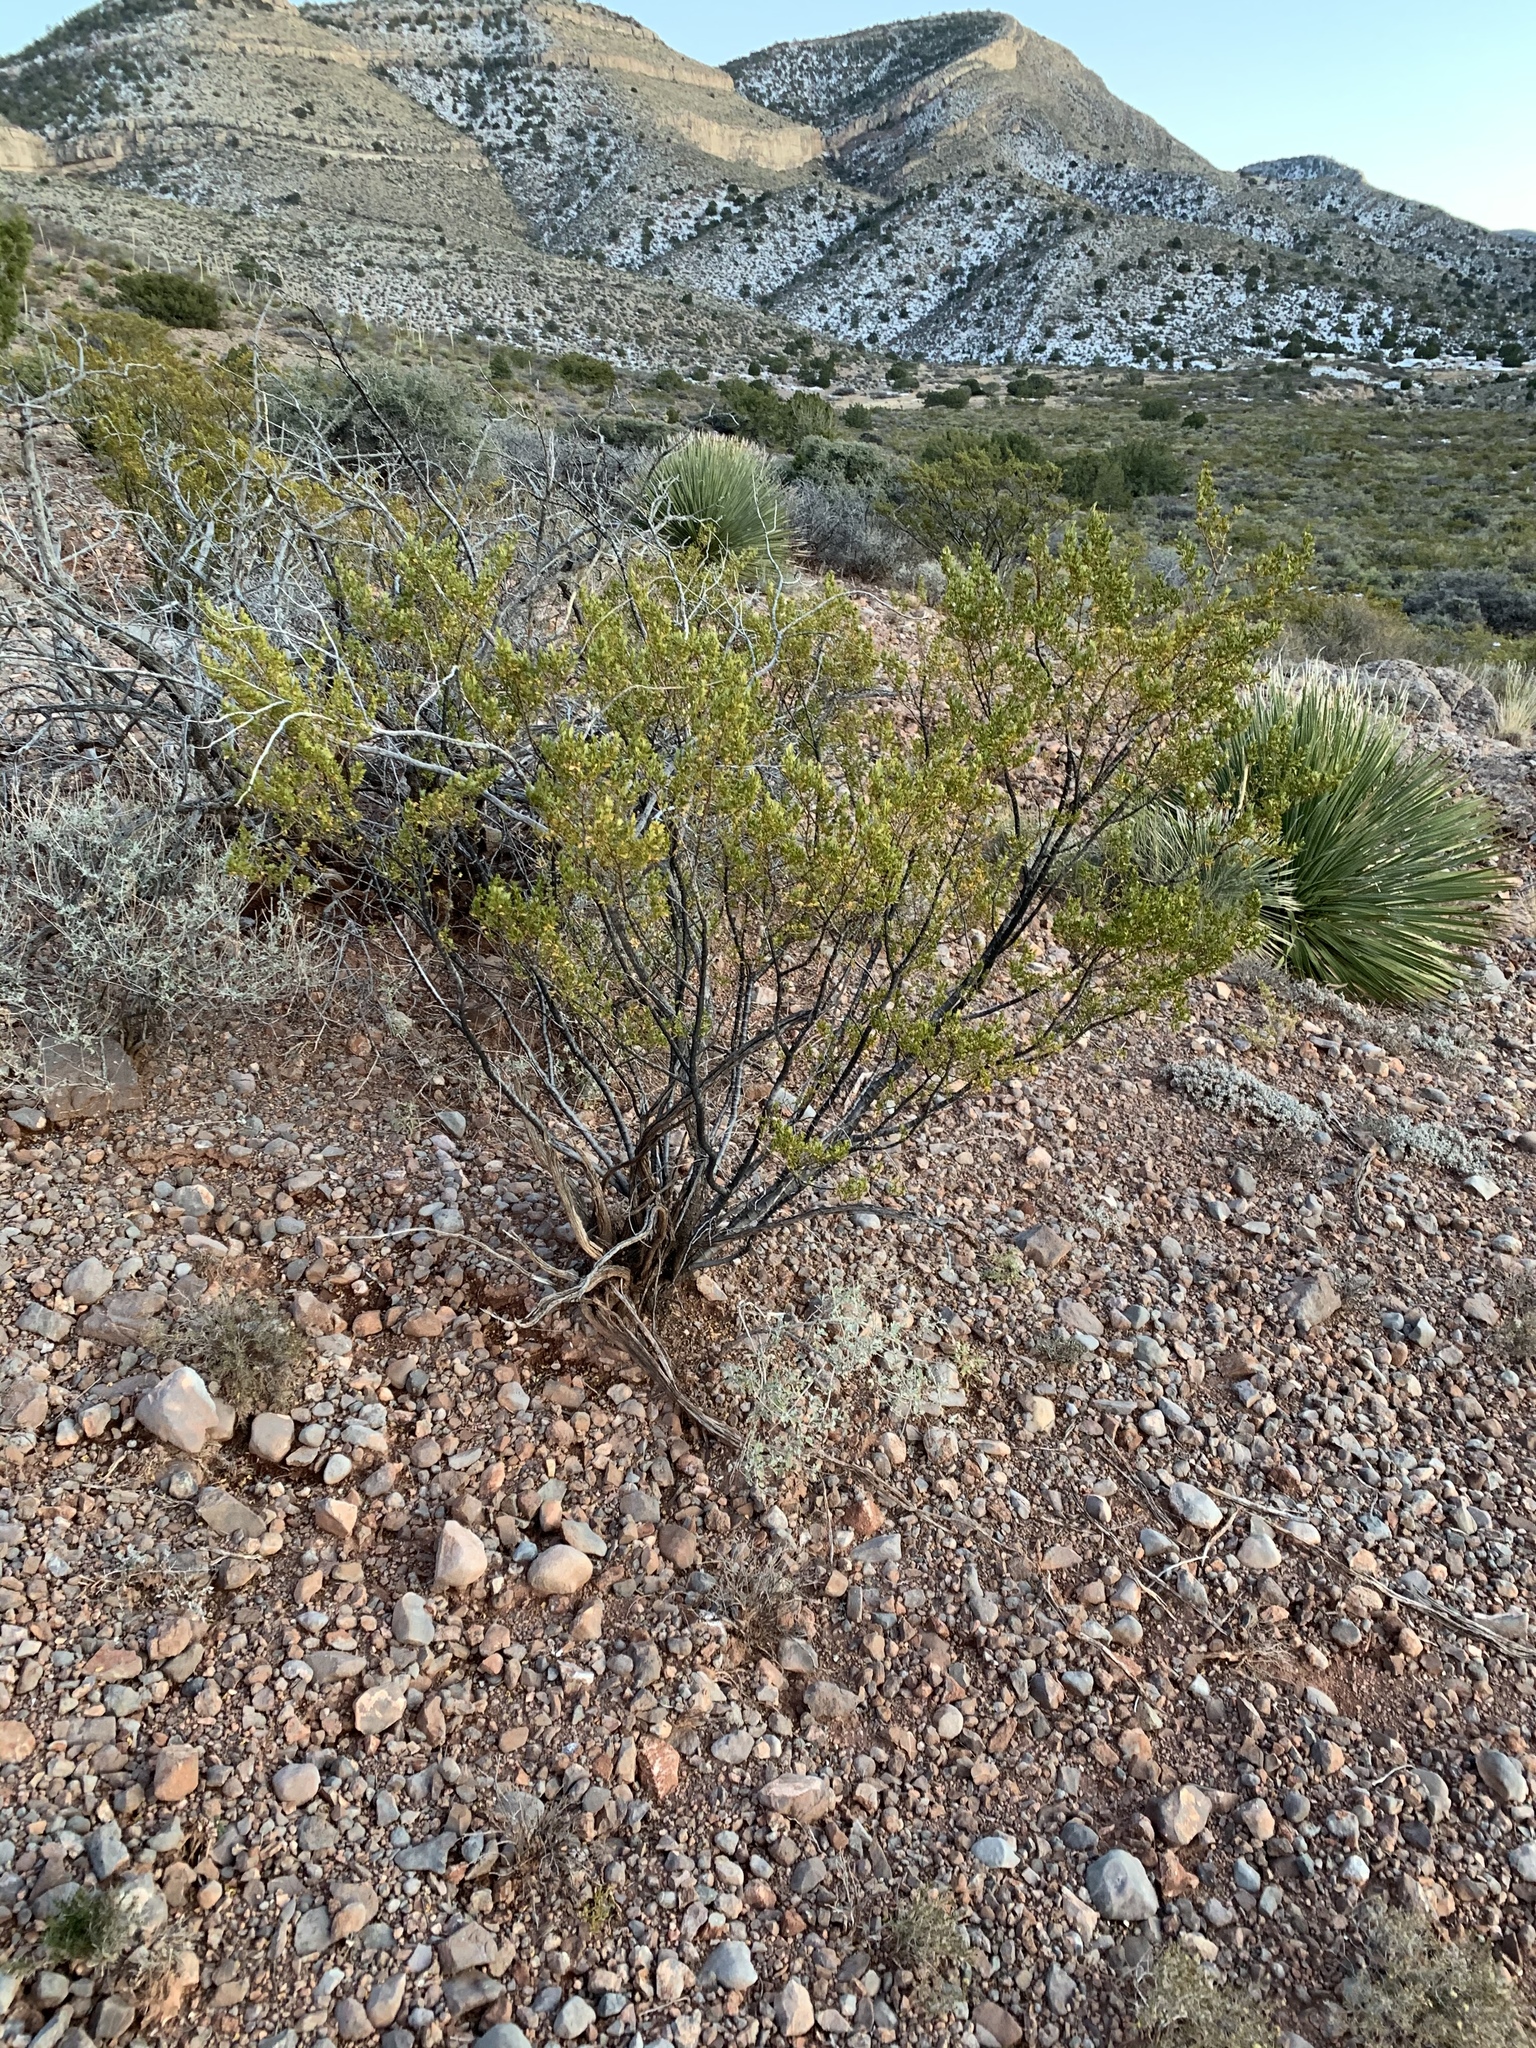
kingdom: Plantae
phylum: Tracheophyta
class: Magnoliopsida
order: Zygophyllales
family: Zygophyllaceae
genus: Larrea
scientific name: Larrea tridentata
